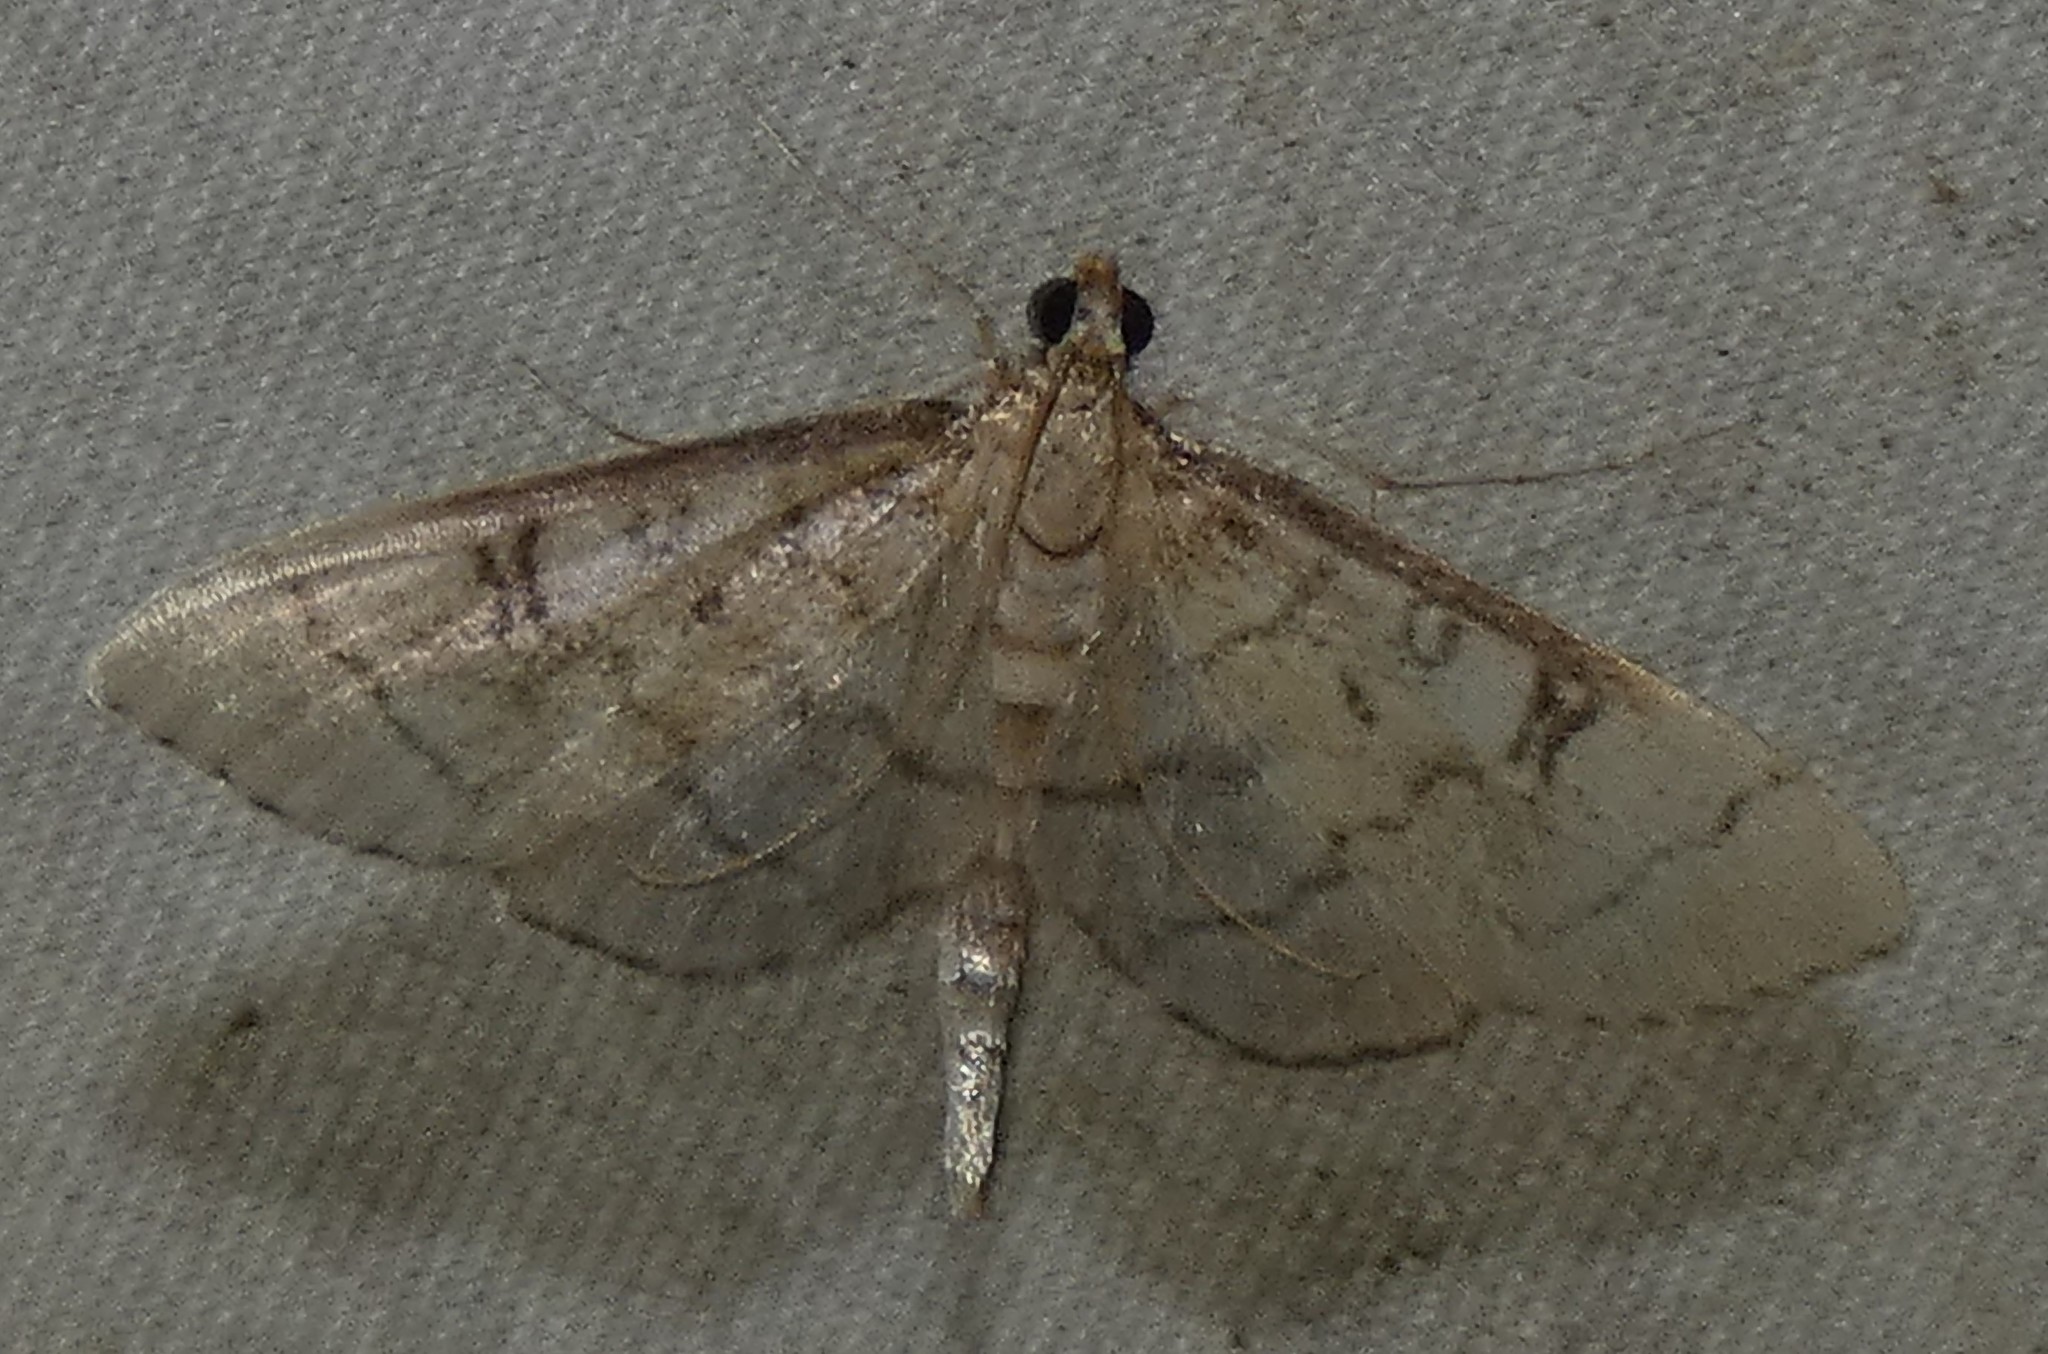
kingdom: Animalia
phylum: Arthropoda
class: Insecta
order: Lepidoptera
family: Crambidae
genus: Lamprosema
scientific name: Lamprosema Blepharomastix ranalis
